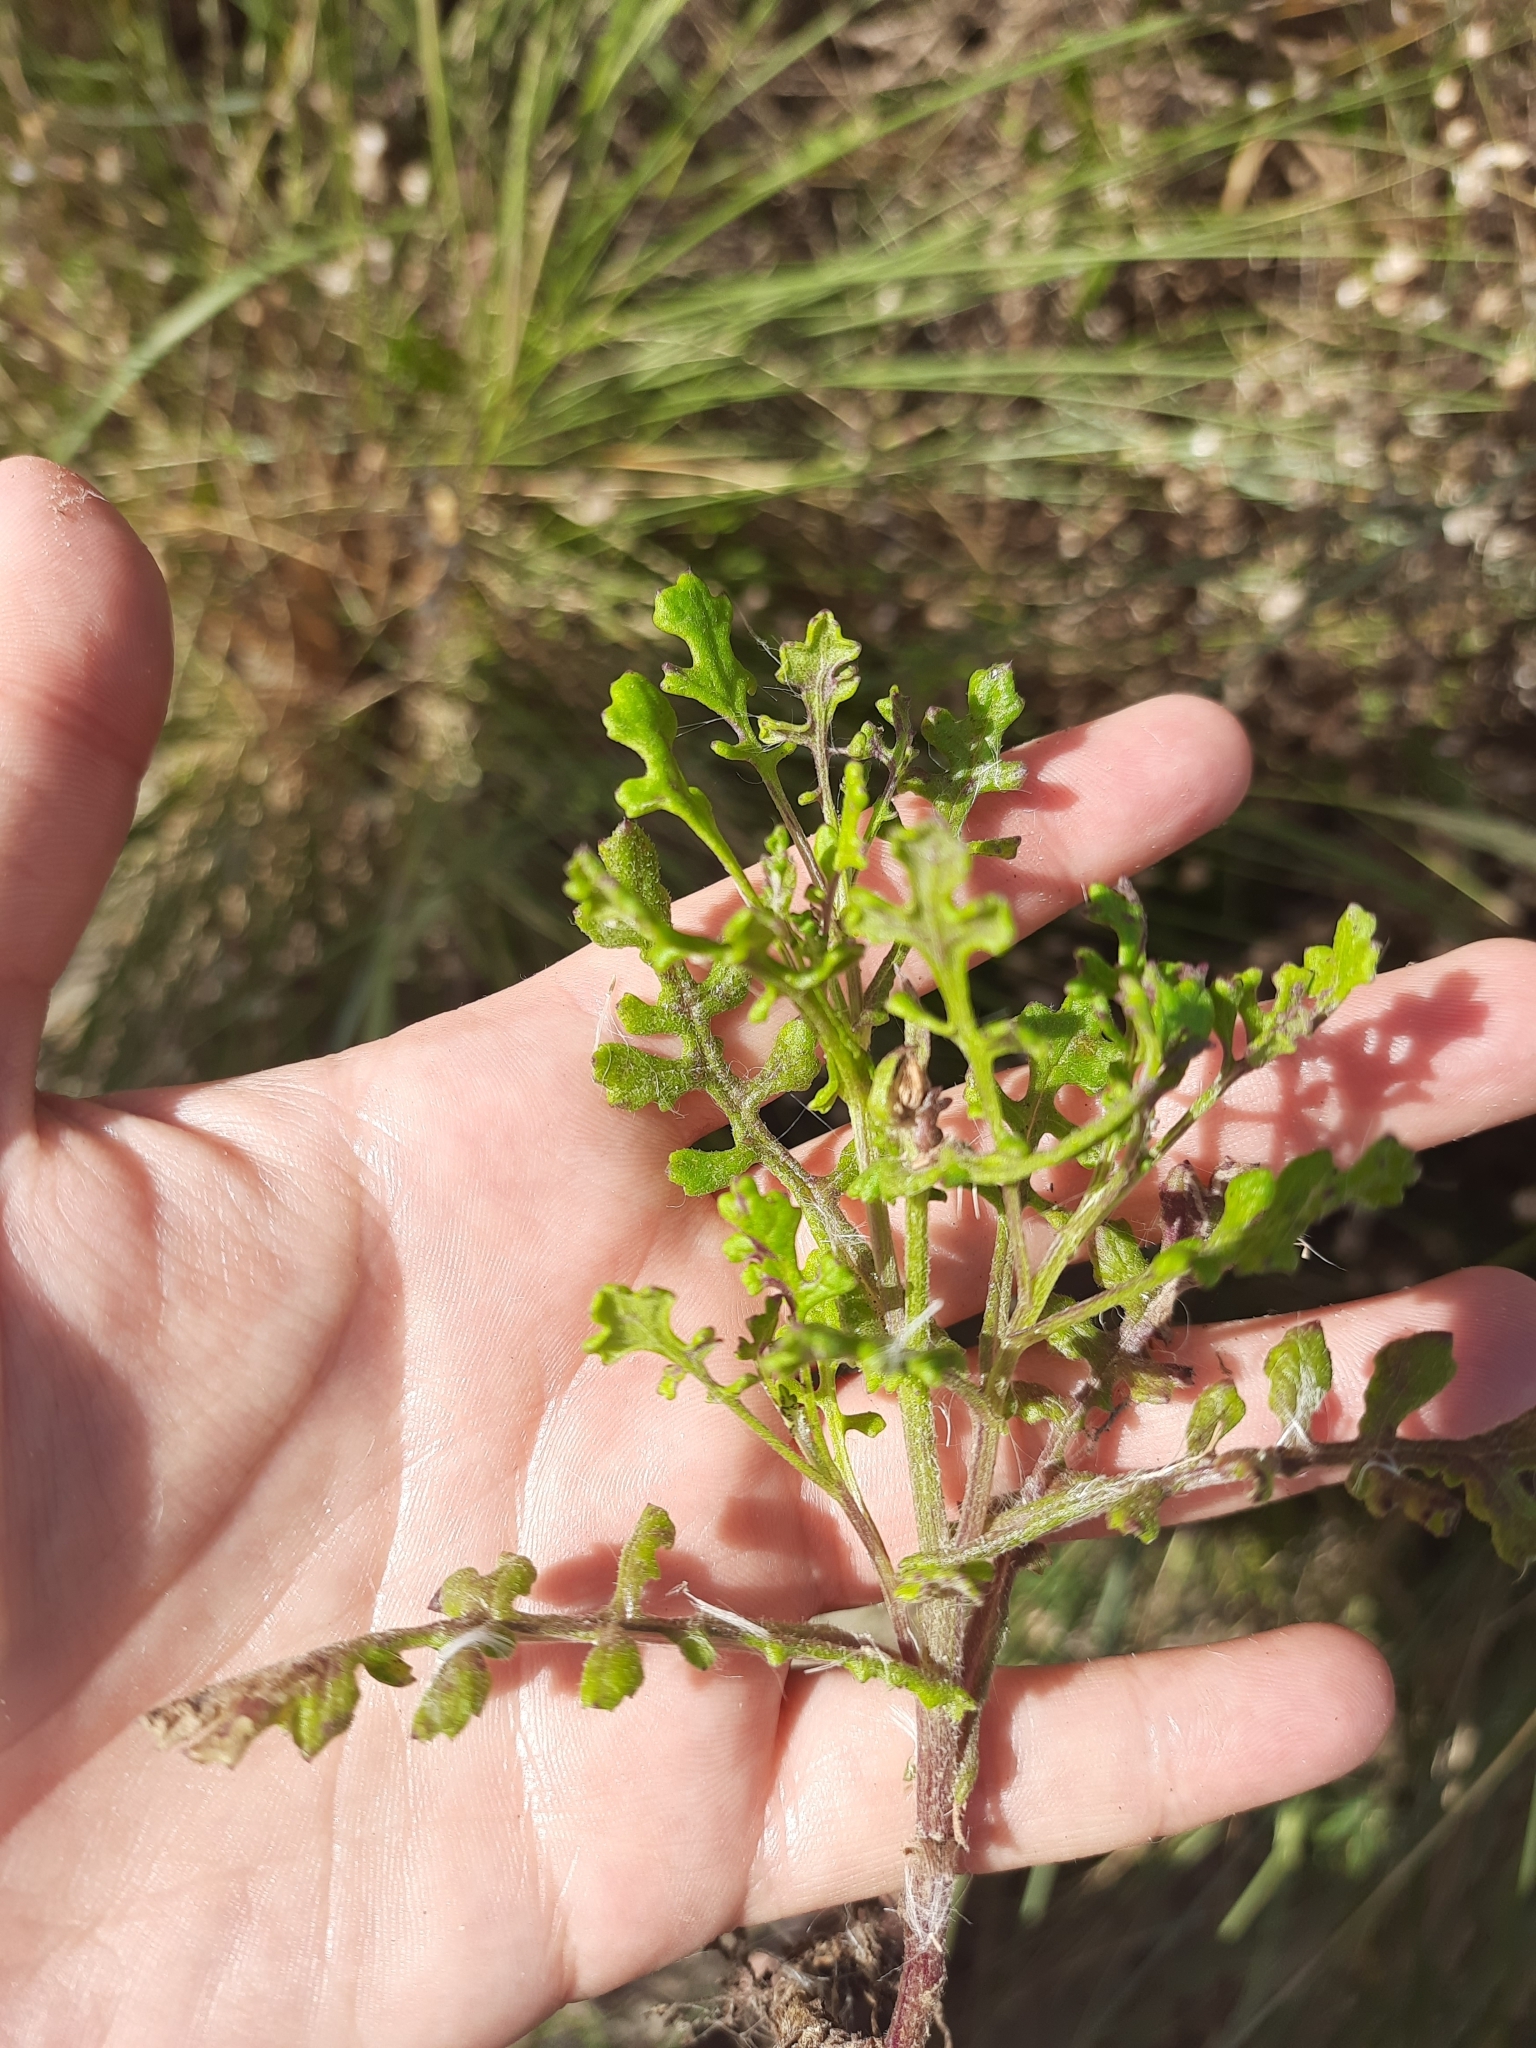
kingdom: Plantae
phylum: Tracheophyta
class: Magnoliopsida
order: Asterales
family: Asteraceae
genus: Senecio
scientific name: Senecio elegans
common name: Purple groundsel
